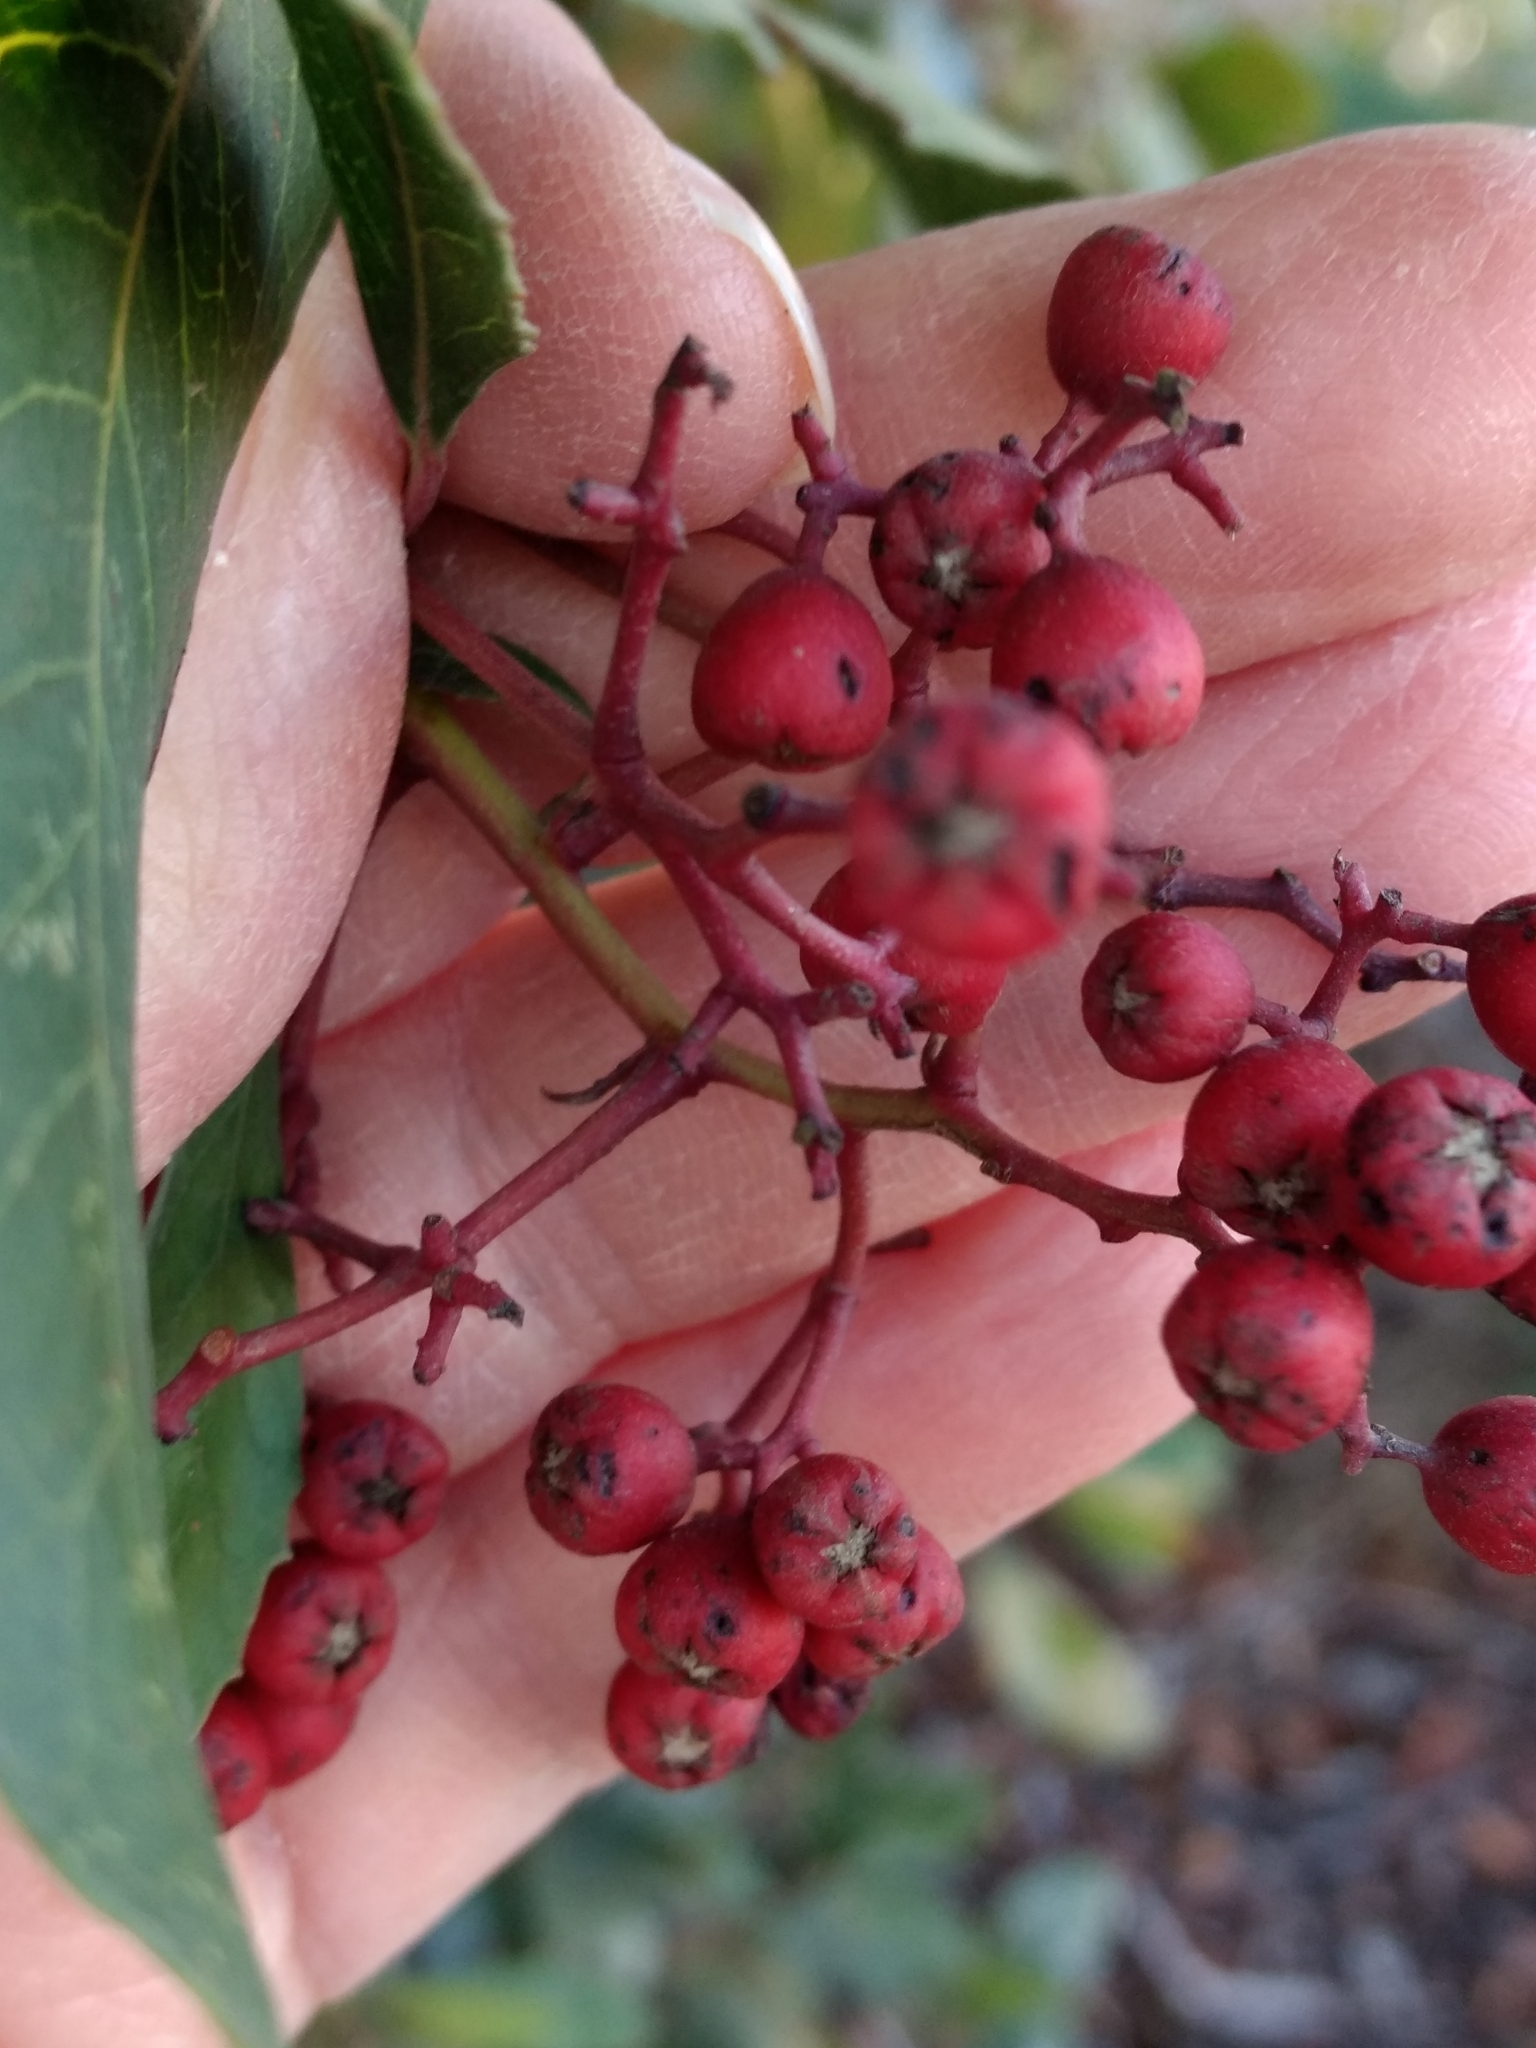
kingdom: Plantae
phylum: Tracheophyta
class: Magnoliopsida
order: Rosales
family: Rosaceae
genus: Heteromeles
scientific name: Heteromeles arbutifolia
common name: California-holly
